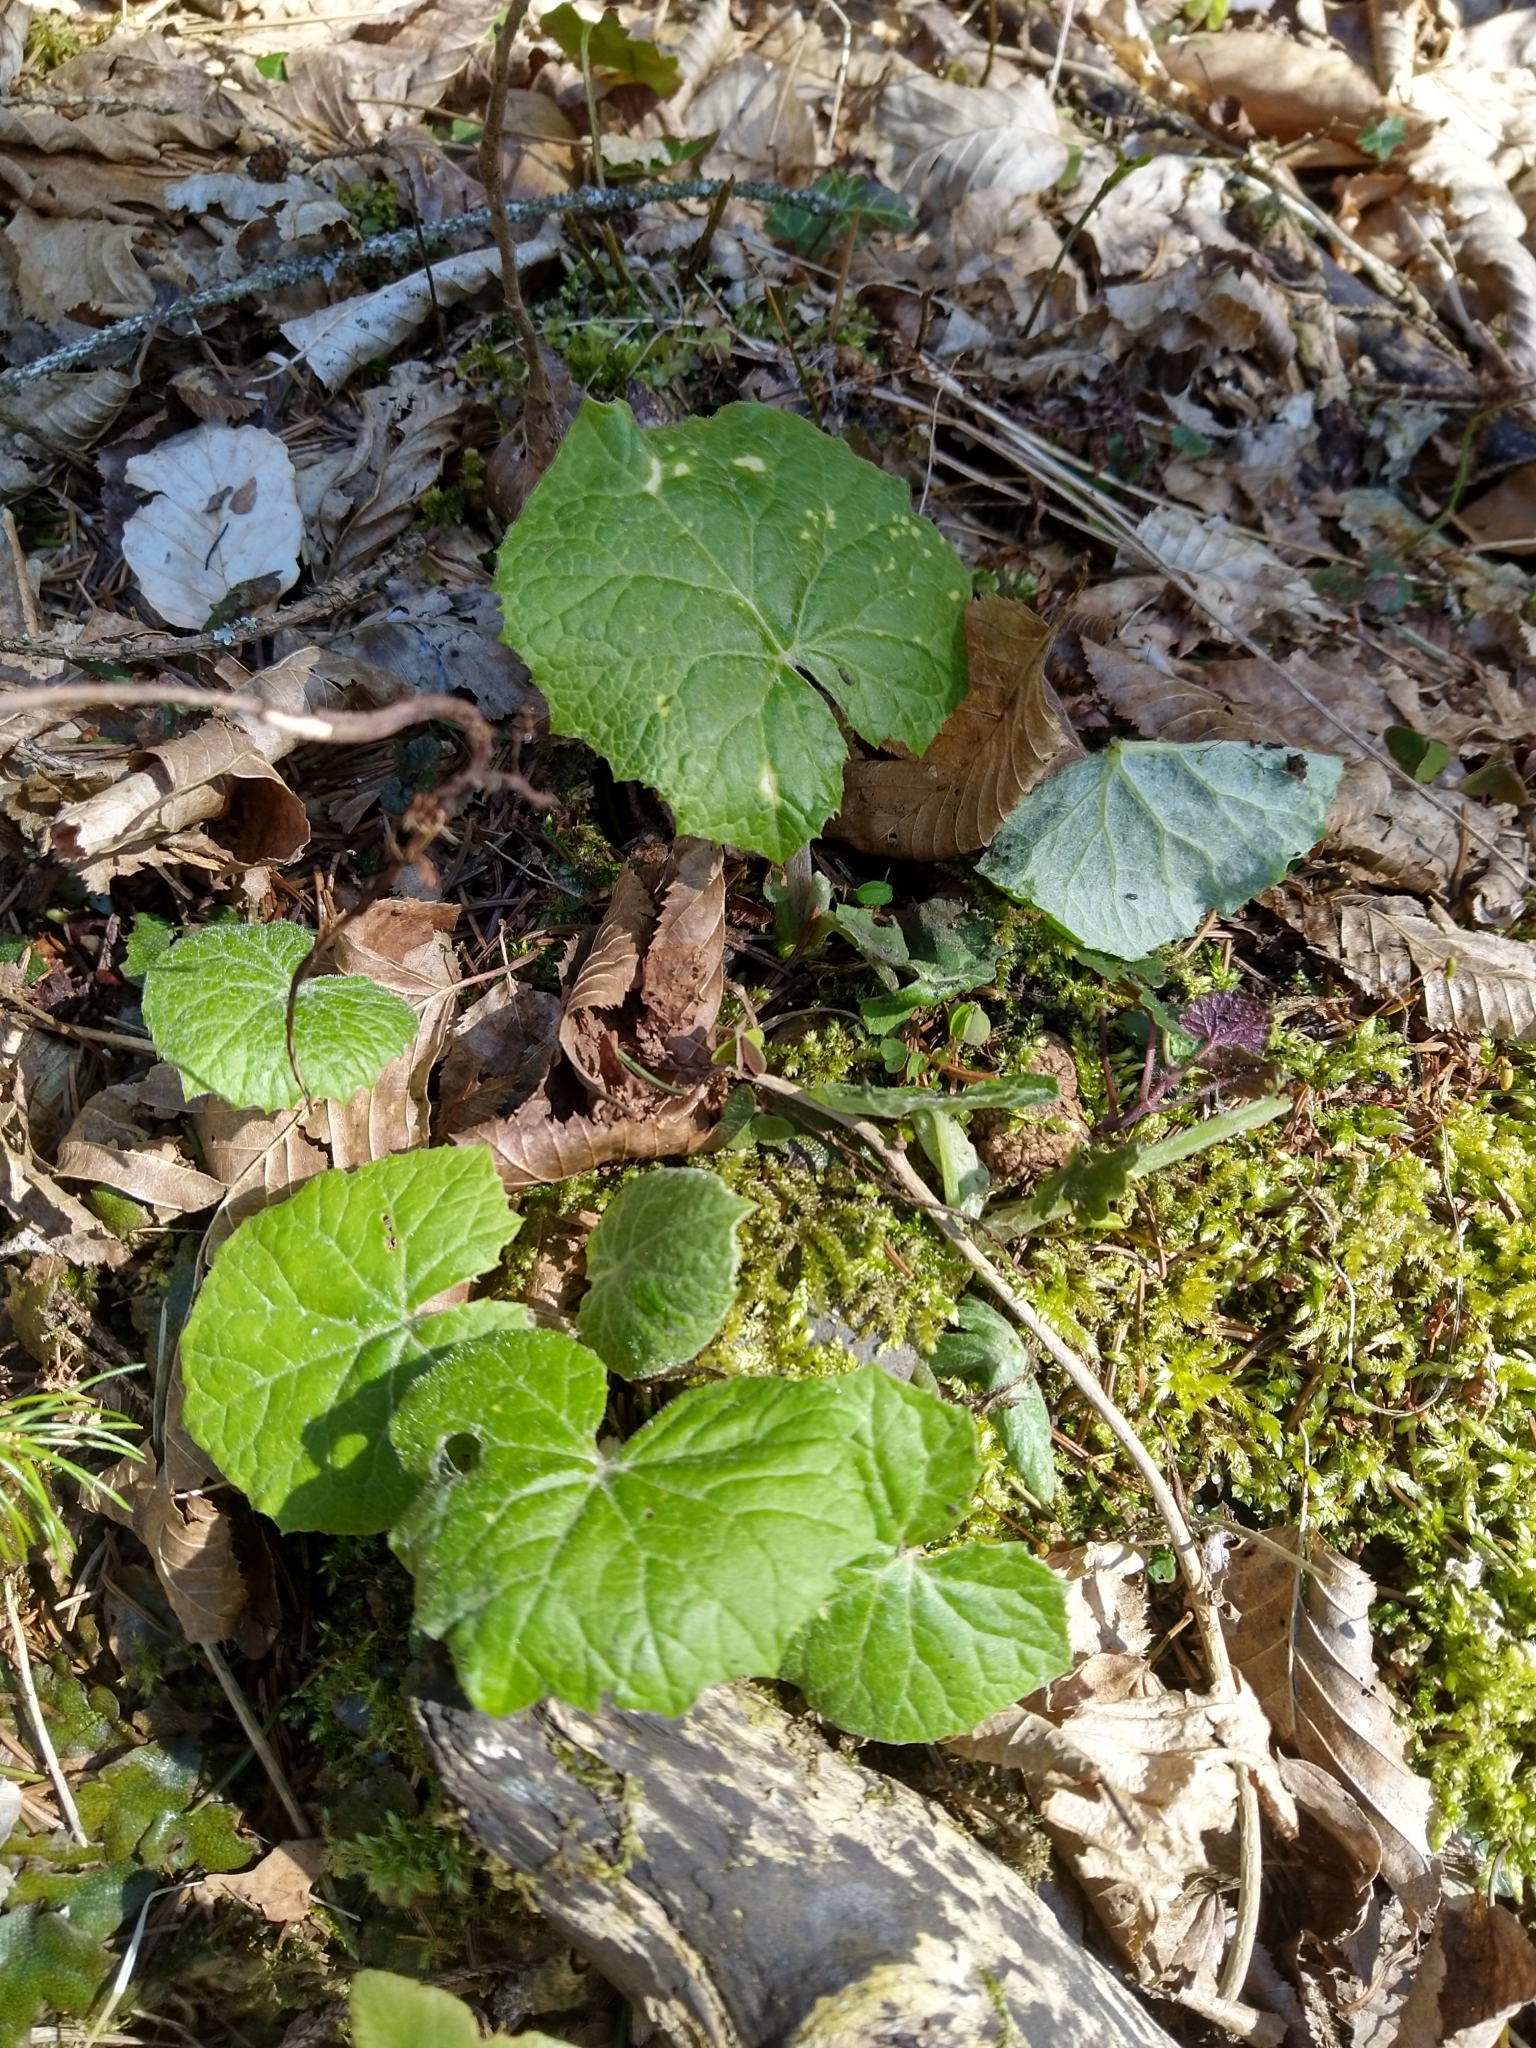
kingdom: Plantae
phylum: Tracheophyta
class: Magnoliopsida
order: Asterales
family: Asteraceae
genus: Petasites
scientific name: Petasites albus
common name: White butterbur
